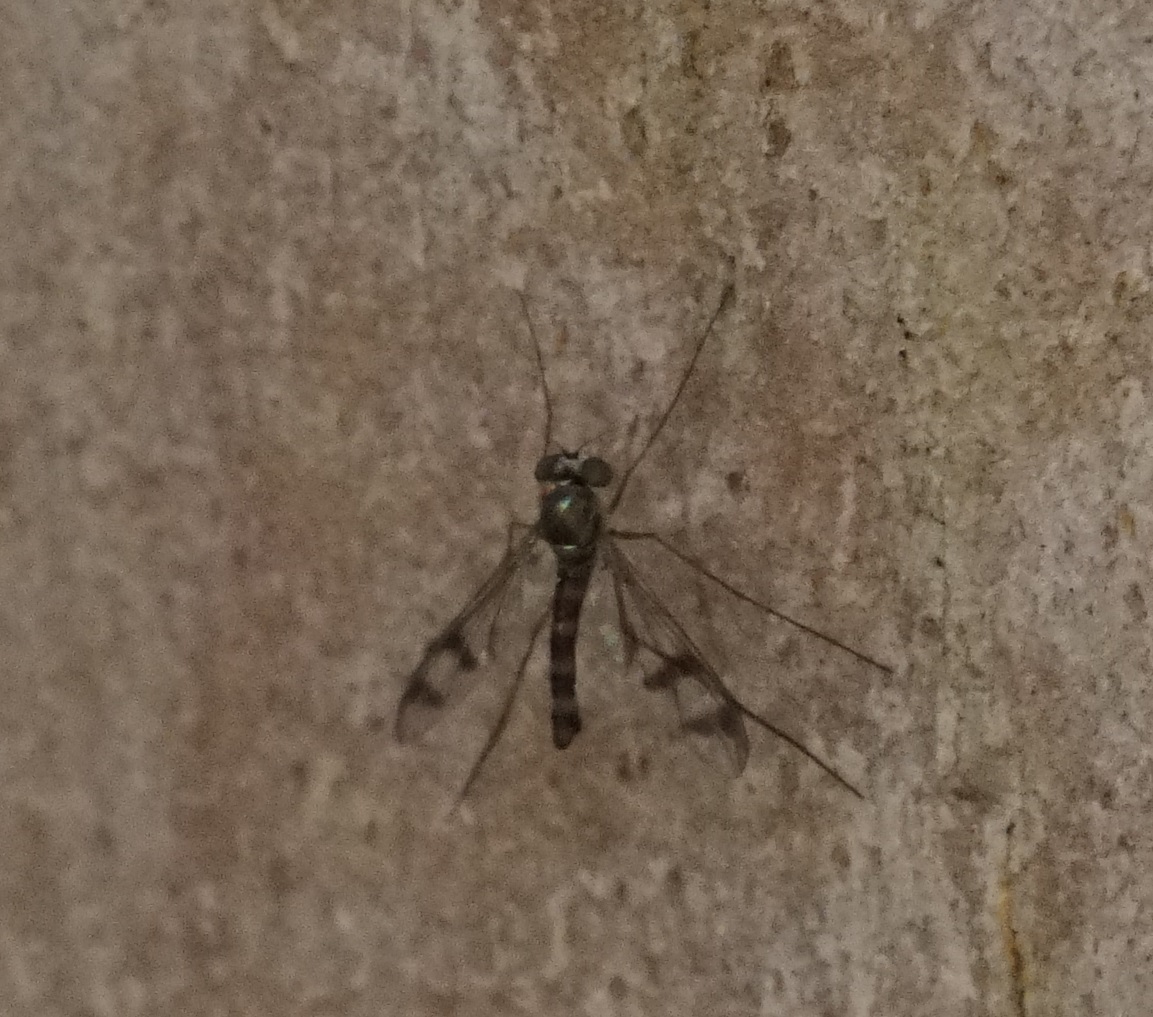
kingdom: Animalia
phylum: Arthropoda
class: Insecta
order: Diptera
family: Dolichopodidae
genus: Heteropsilopus
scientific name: Heteropsilopus squamifer
